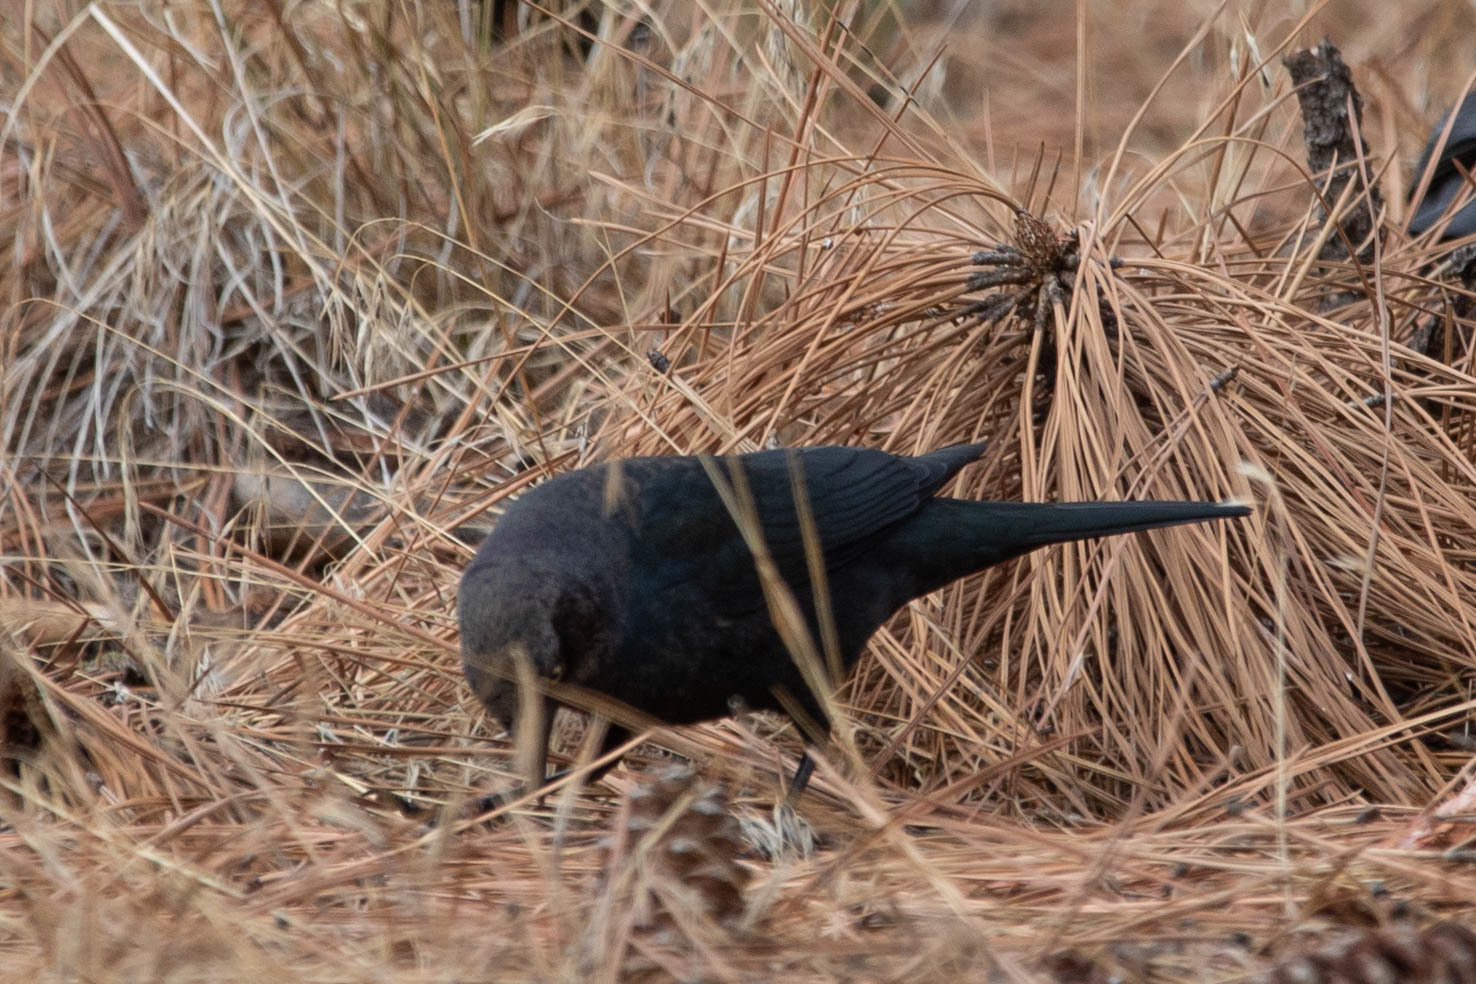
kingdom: Animalia
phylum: Chordata
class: Aves
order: Passeriformes
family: Icteridae
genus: Euphagus
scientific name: Euphagus cyanocephalus
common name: Brewer's blackbird
